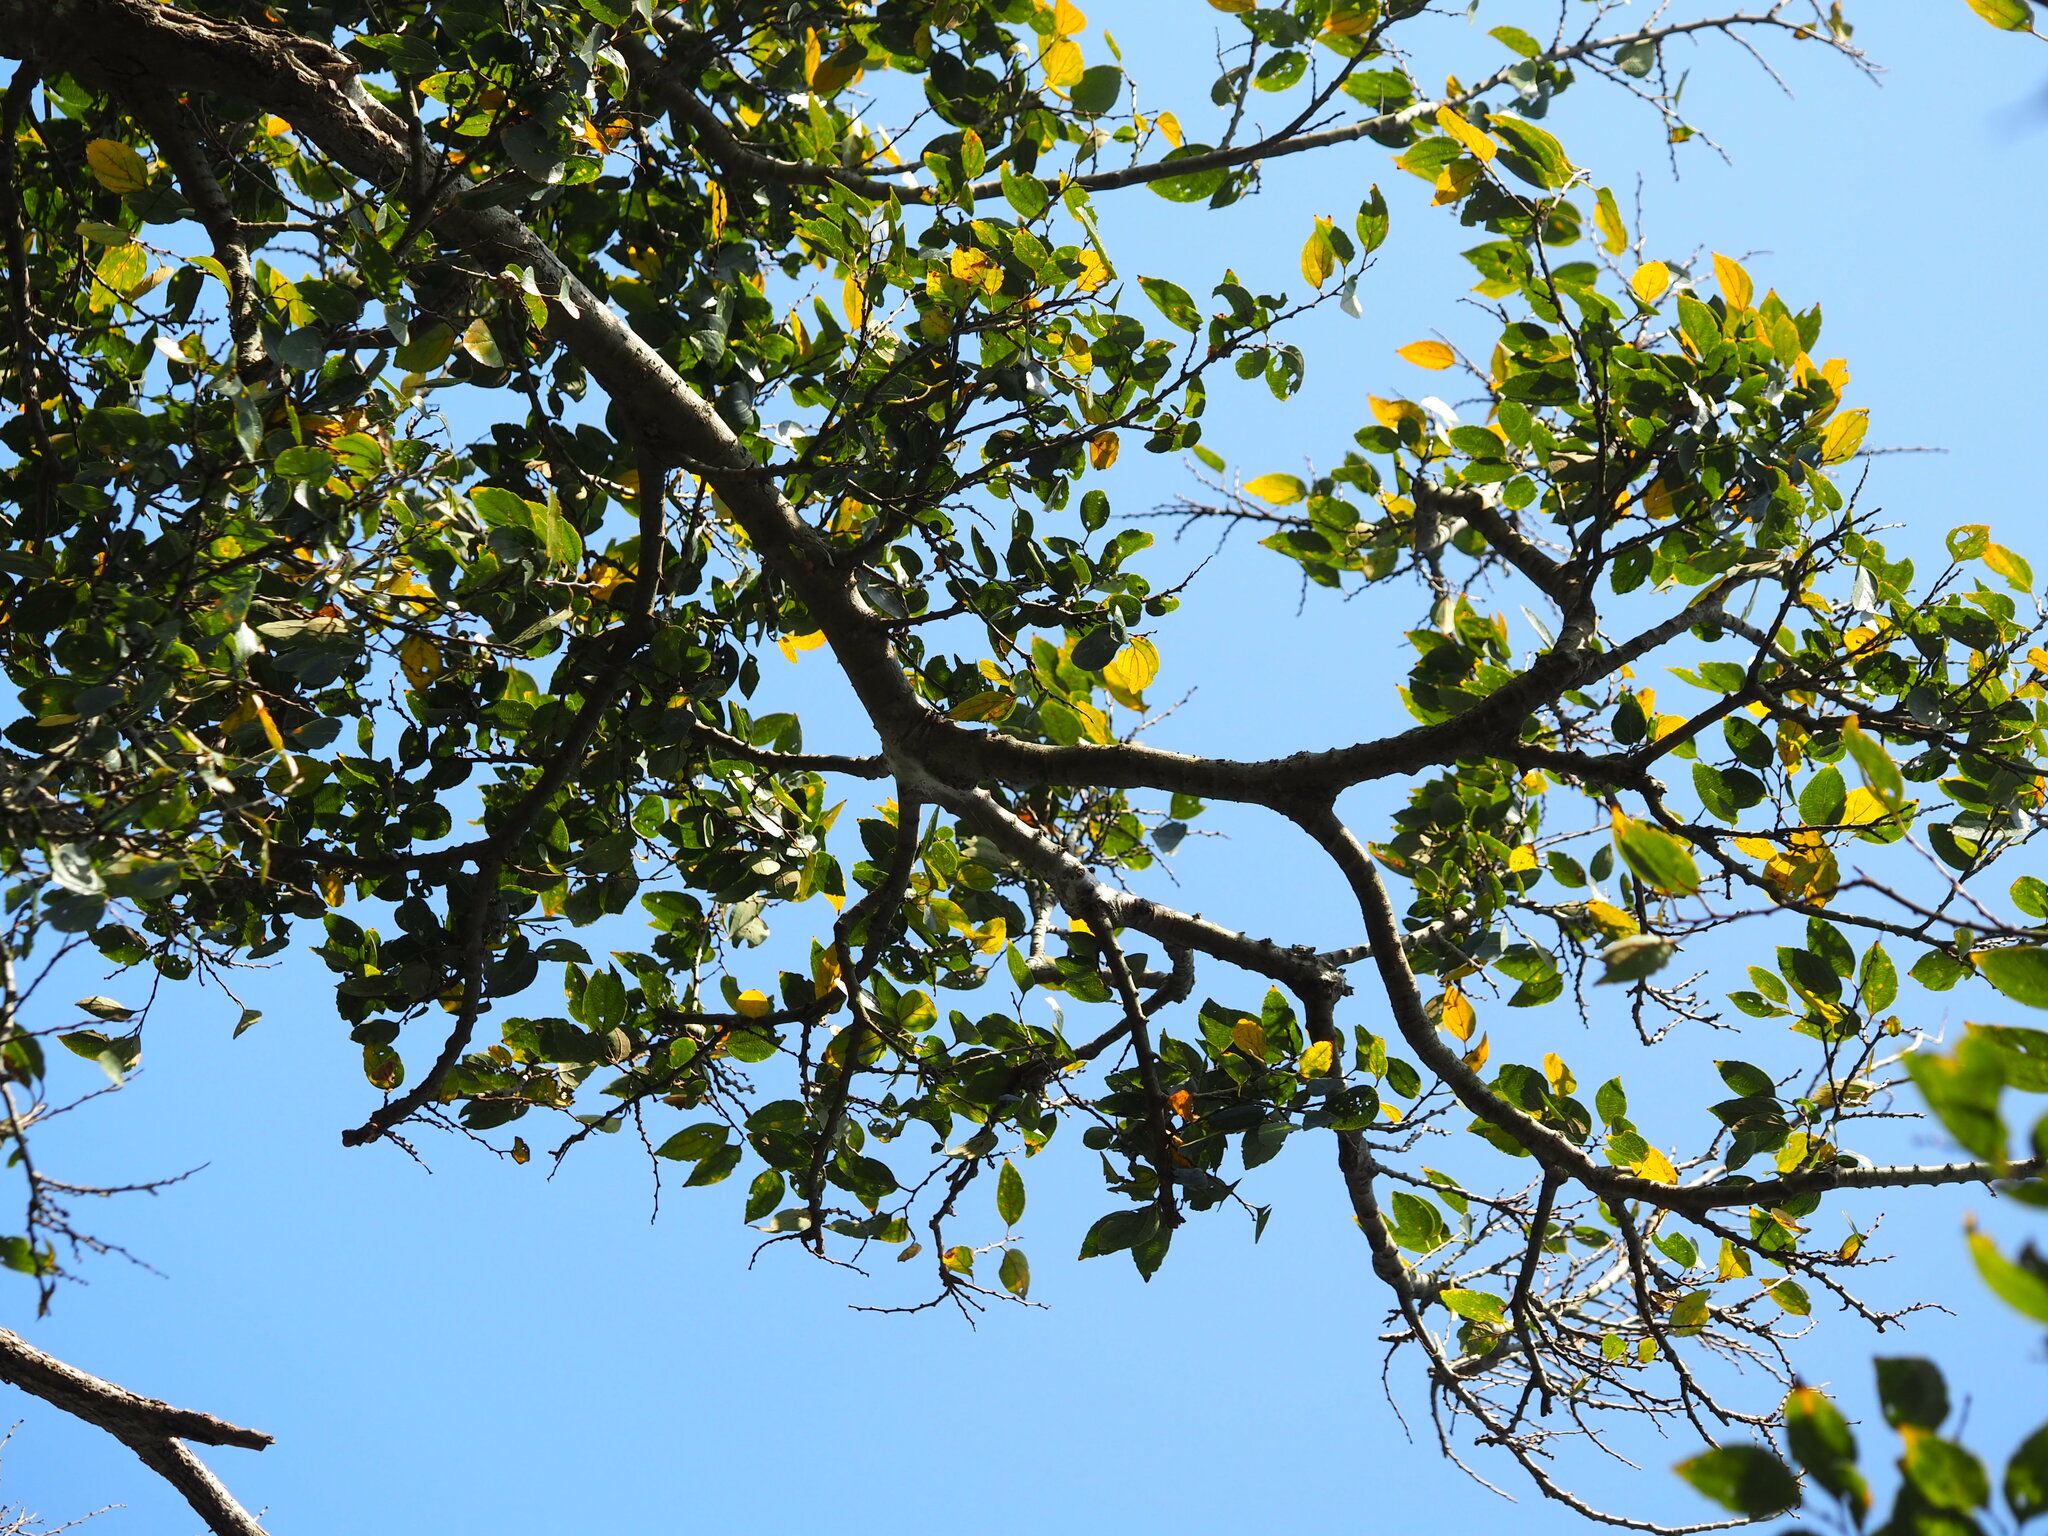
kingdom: Plantae
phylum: Tracheophyta
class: Magnoliopsida
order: Rosales
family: Cannabaceae
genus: Celtis
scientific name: Celtis sinensis
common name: Chinese hackberry
